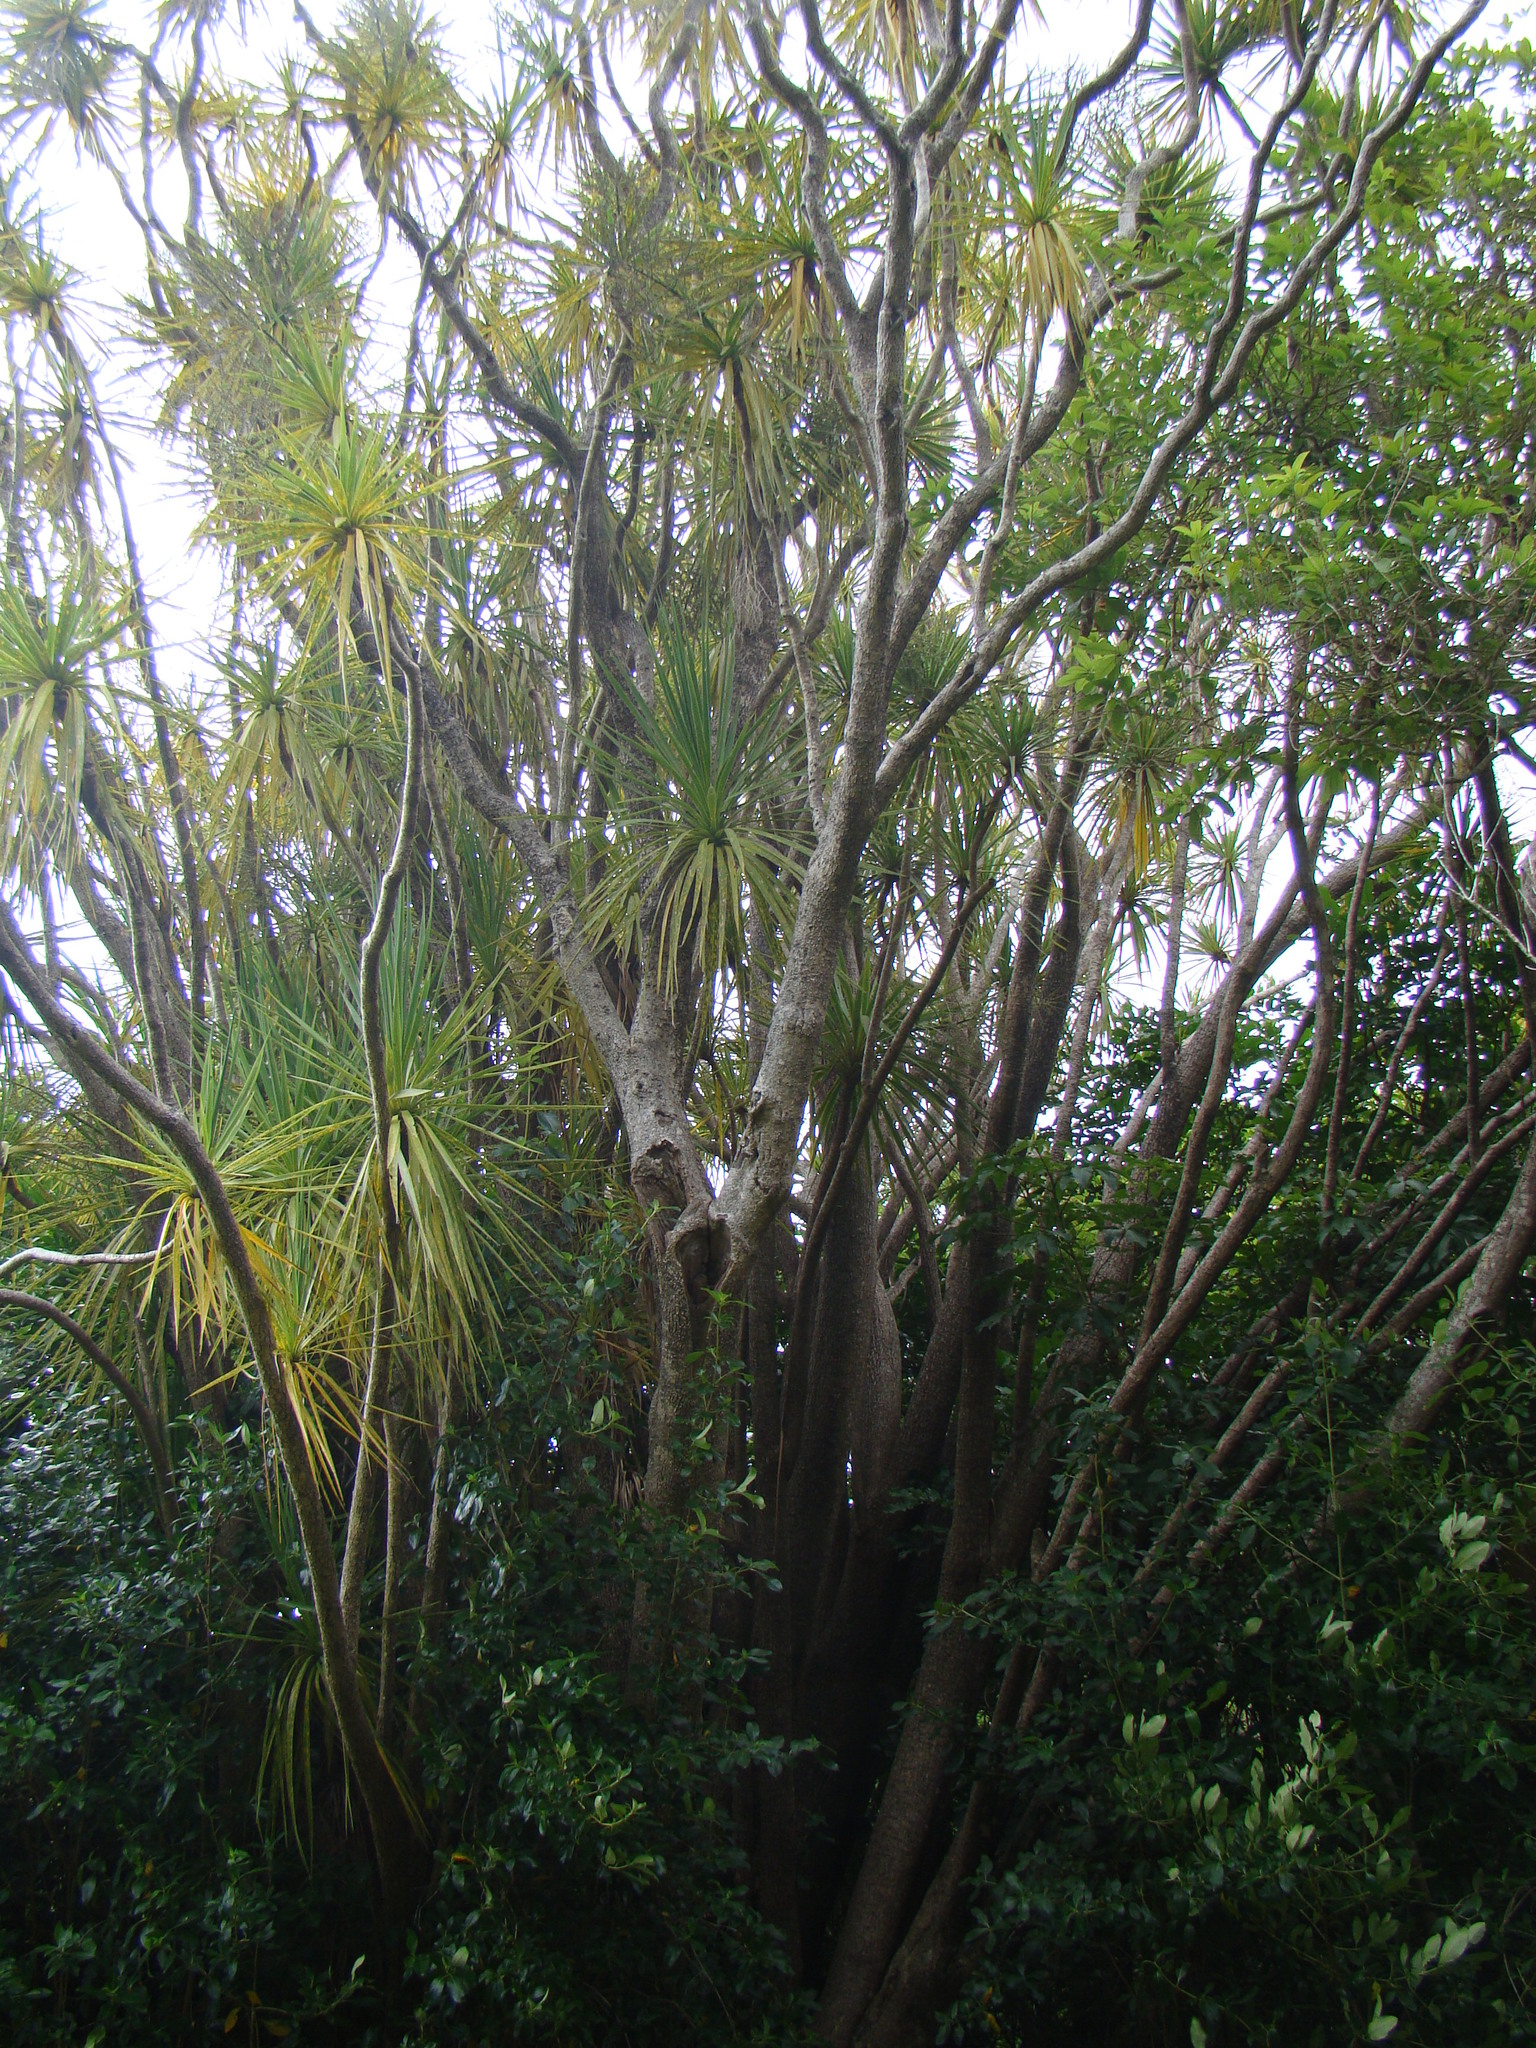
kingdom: Plantae
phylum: Tracheophyta
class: Liliopsida
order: Asparagales
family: Asparagaceae
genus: Cordyline
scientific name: Cordyline australis
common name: Cabbage-palm
